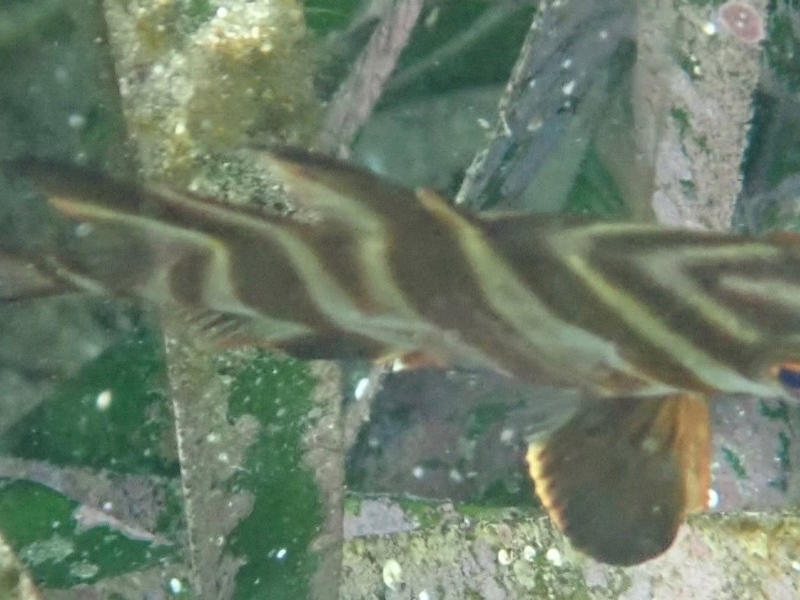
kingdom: Animalia
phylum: Chordata
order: Perciformes
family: Enoplosidae
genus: Enoplosus
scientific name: Enoplosus armatus
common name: Old wife
